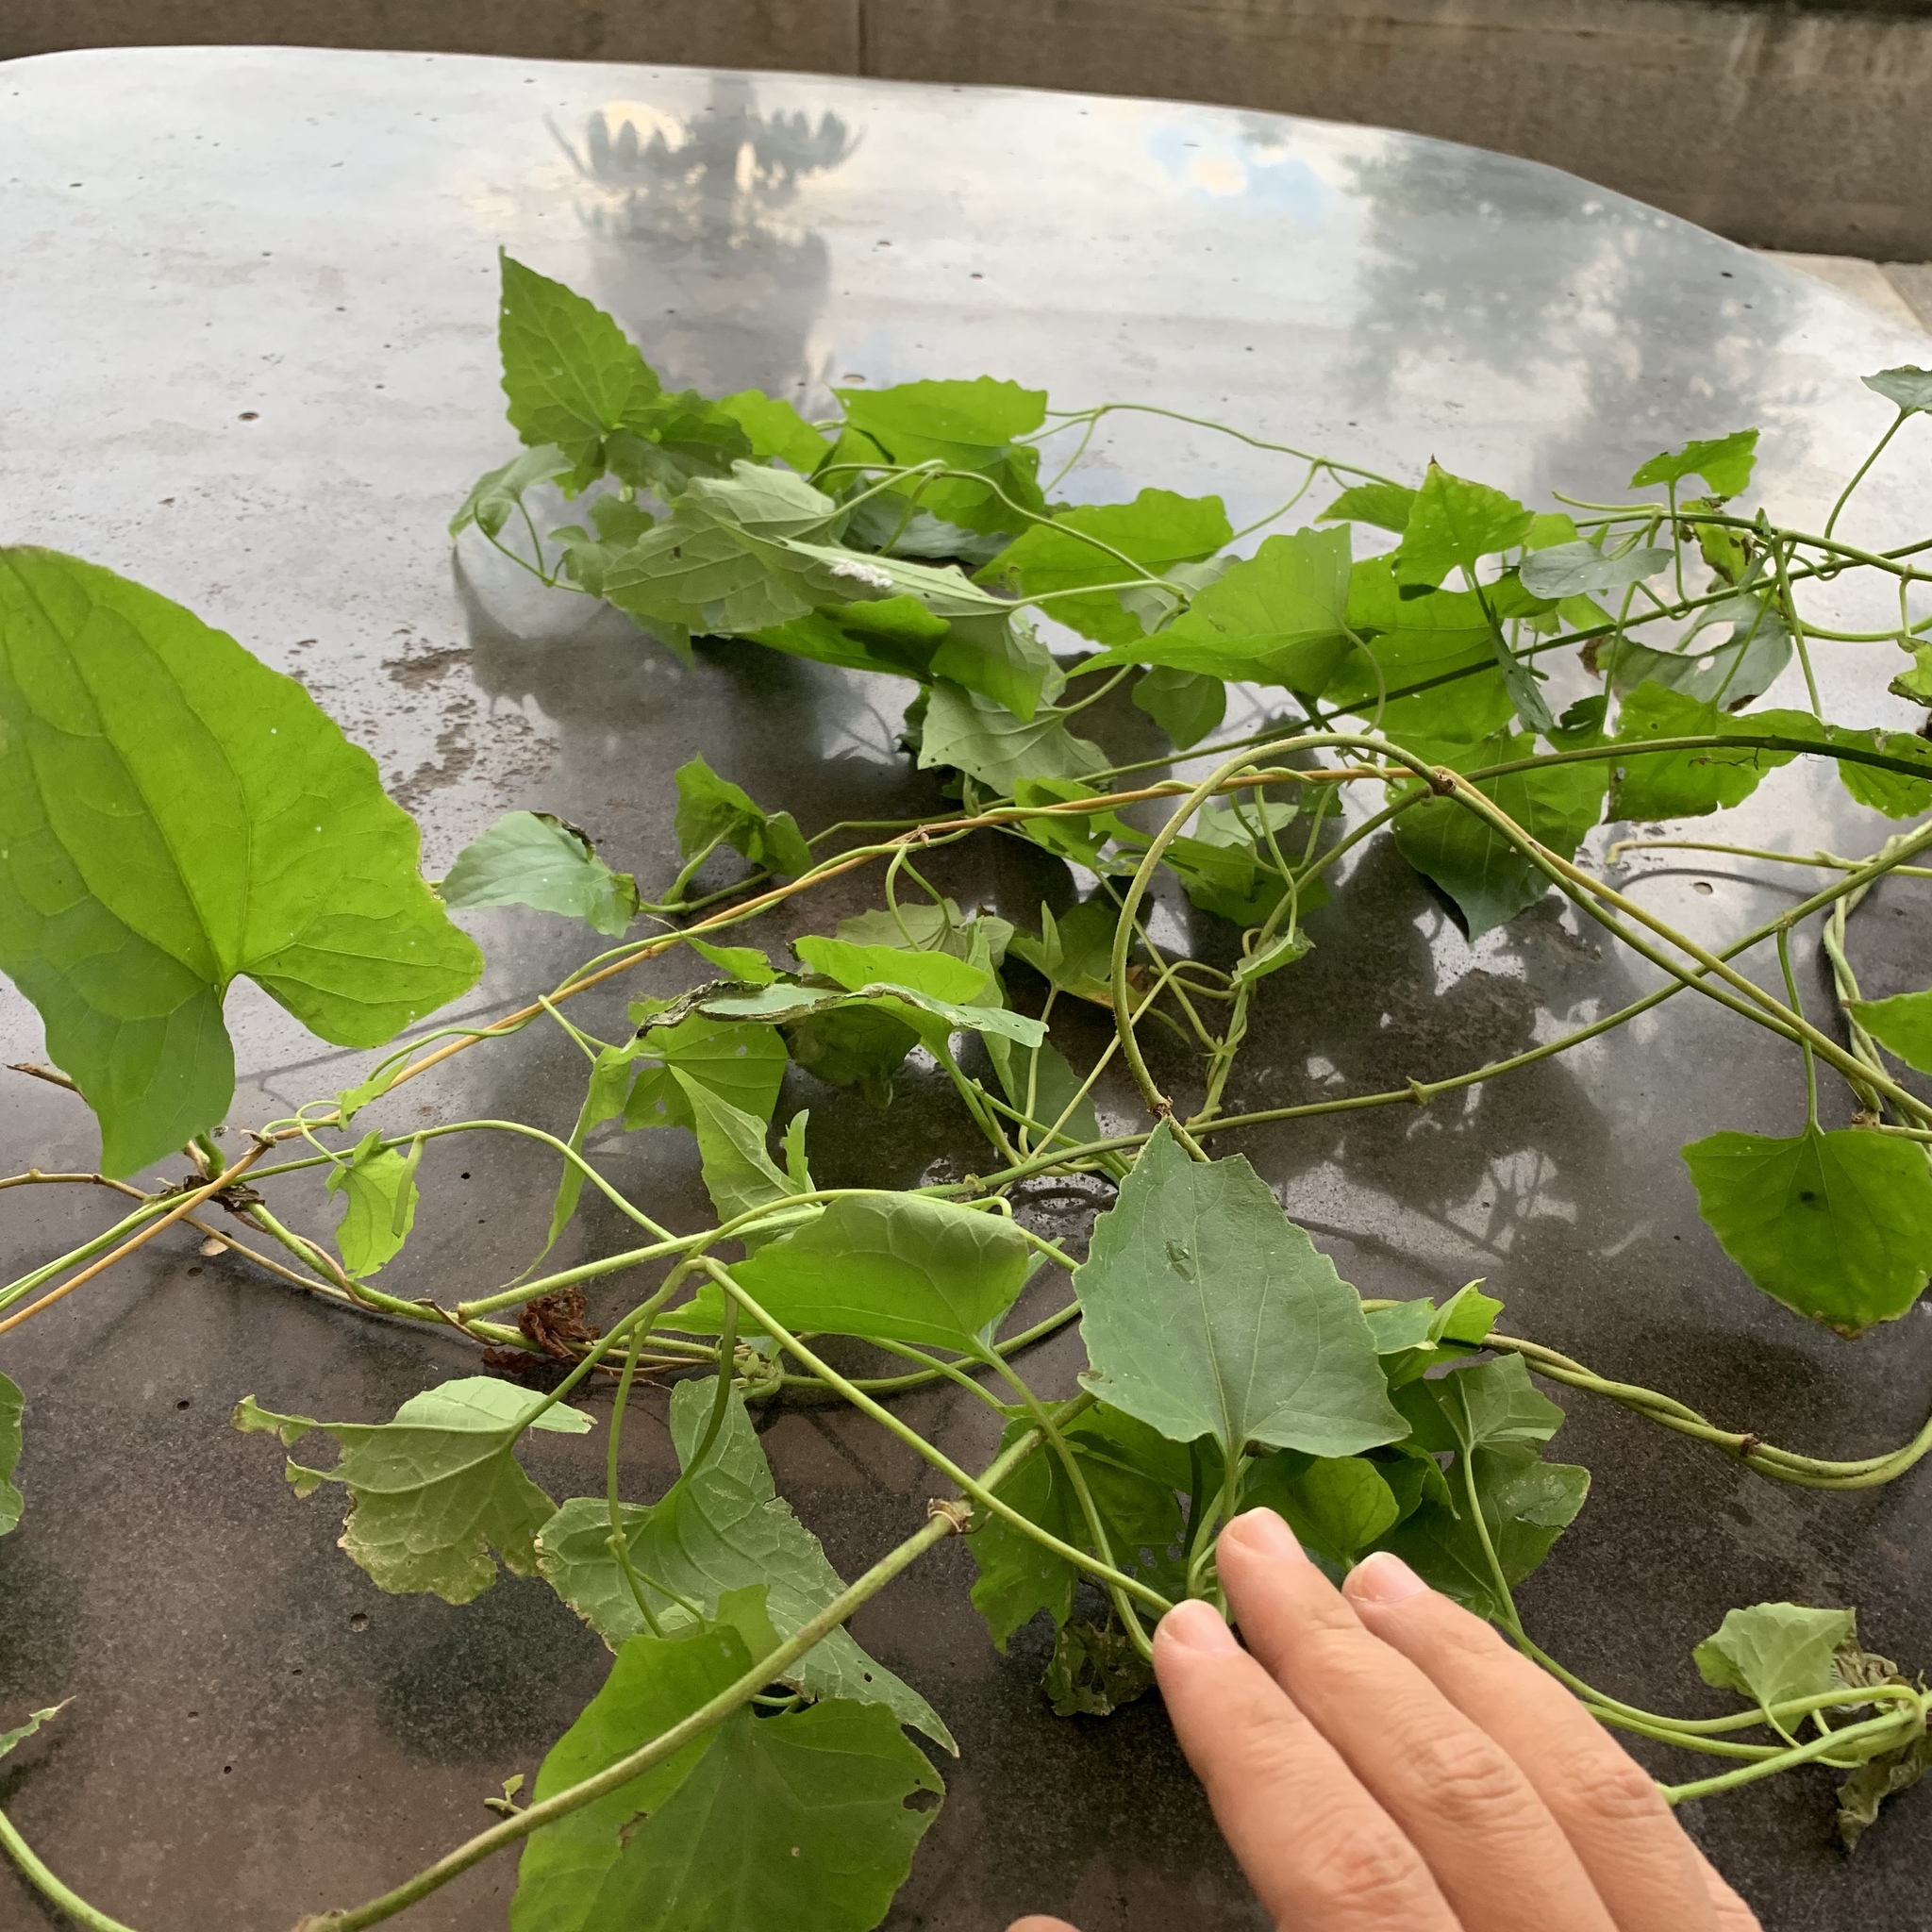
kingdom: Plantae
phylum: Tracheophyta
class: Magnoliopsida
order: Asterales
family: Asteraceae
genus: Mikania
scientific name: Mikania micrantha
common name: Mile-a-minute
